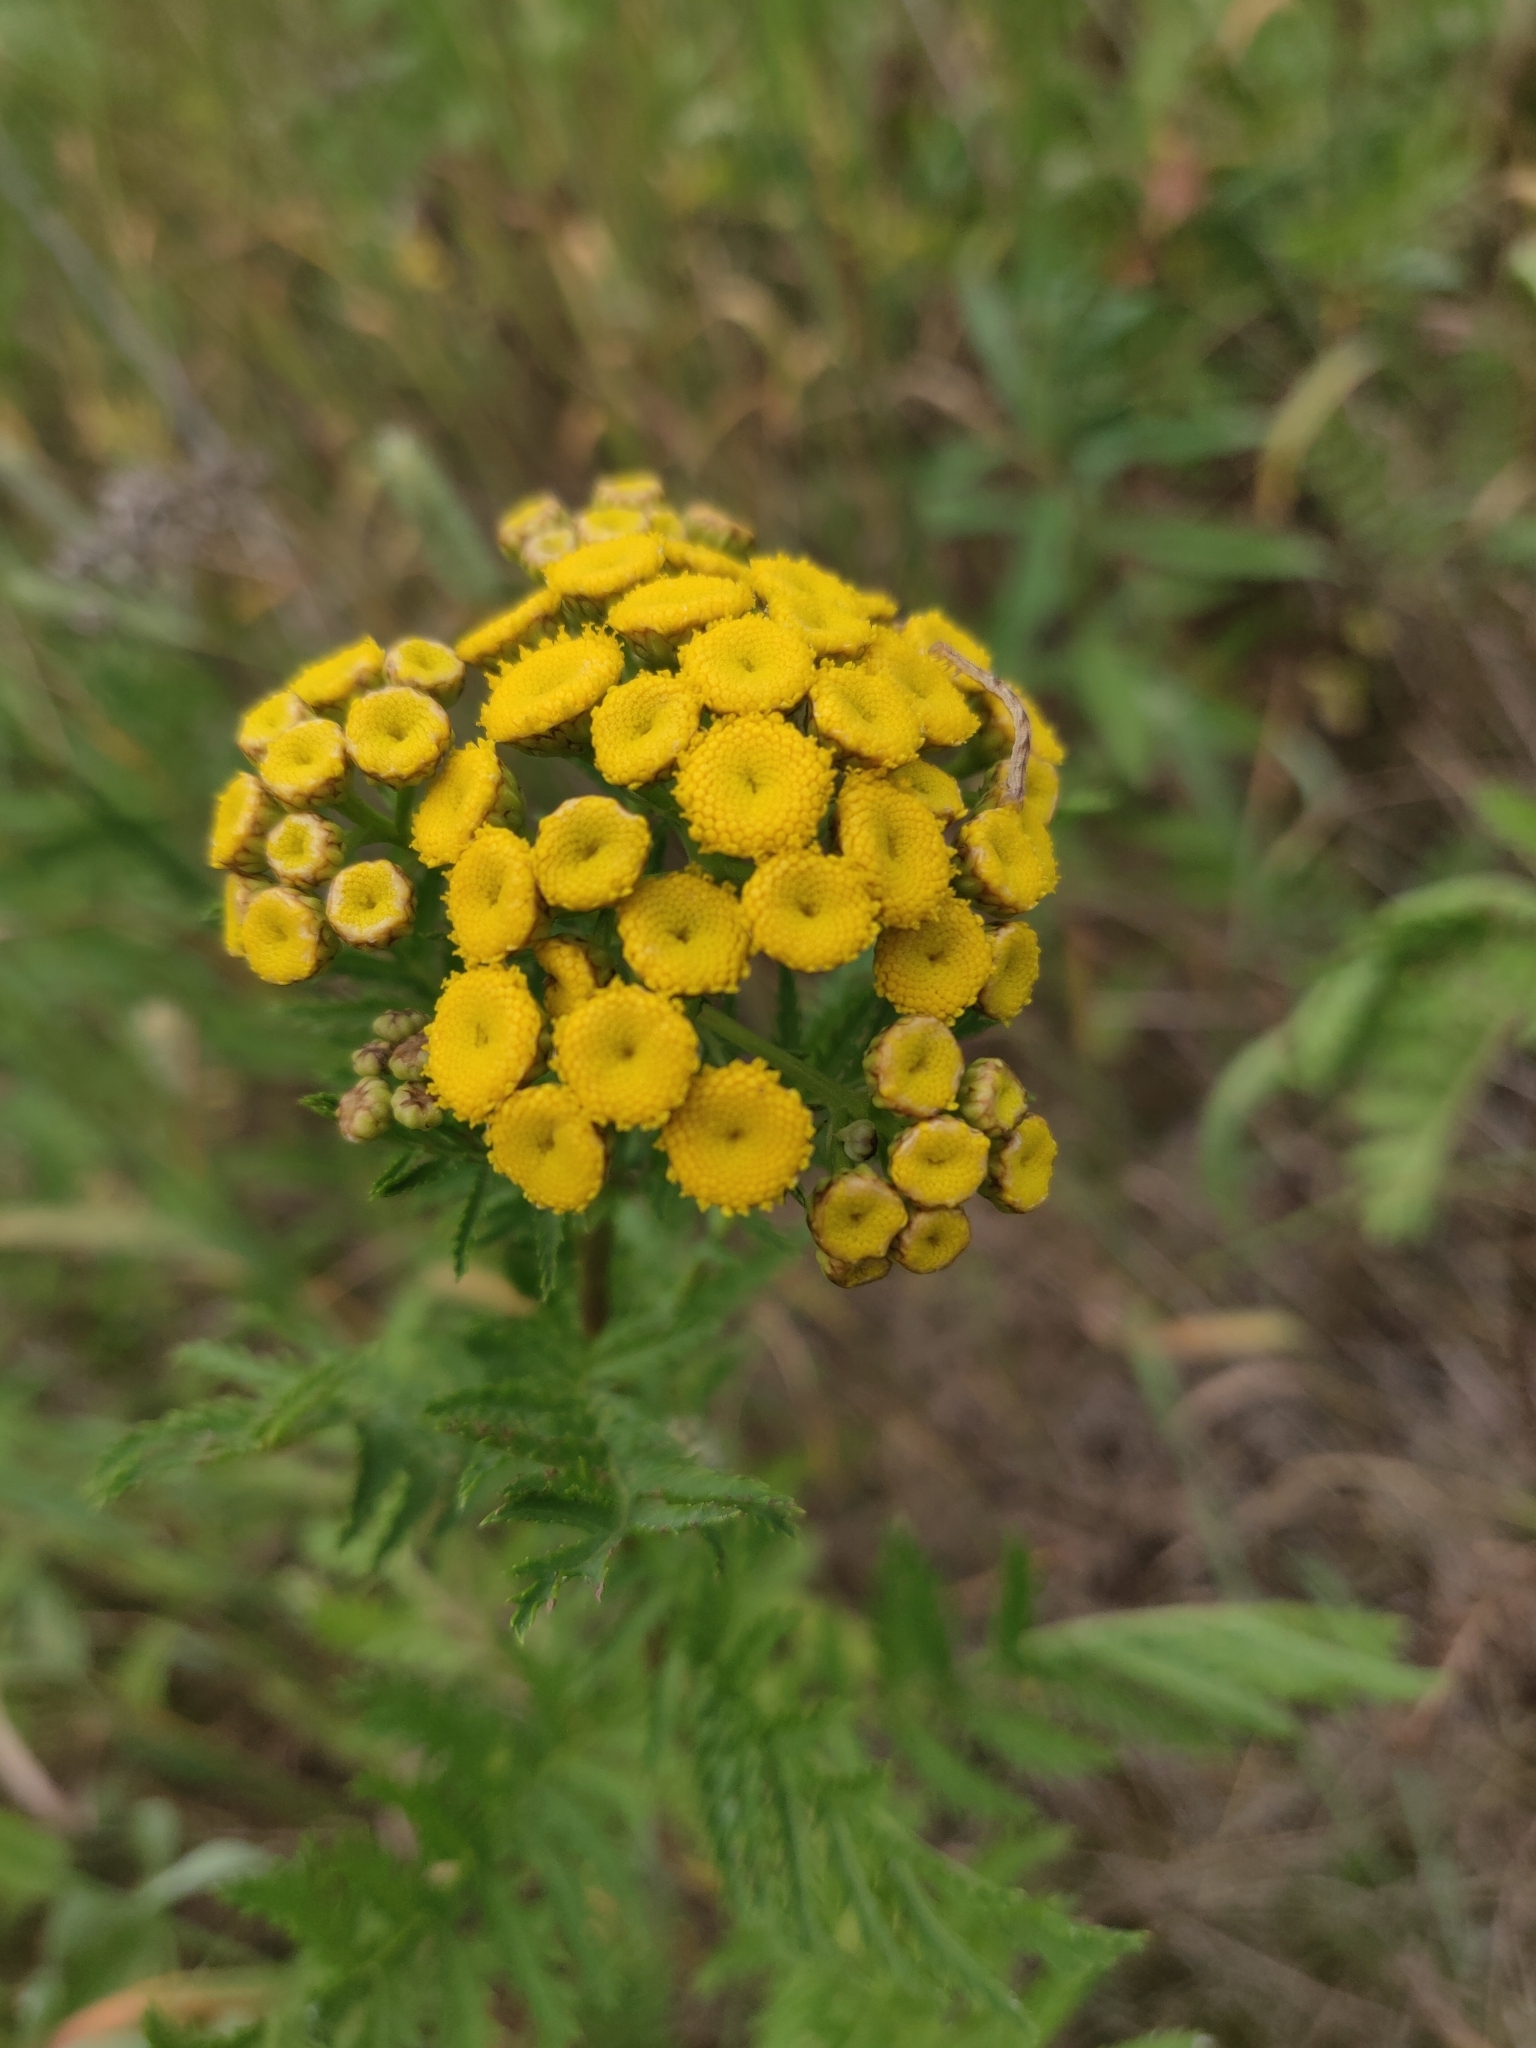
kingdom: Plantae
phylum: Tracheophyta
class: Magnoliopsida
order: Asterales
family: Asteraceae
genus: Tanacetum
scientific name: Tanacetum vulgare
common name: Common tansy
